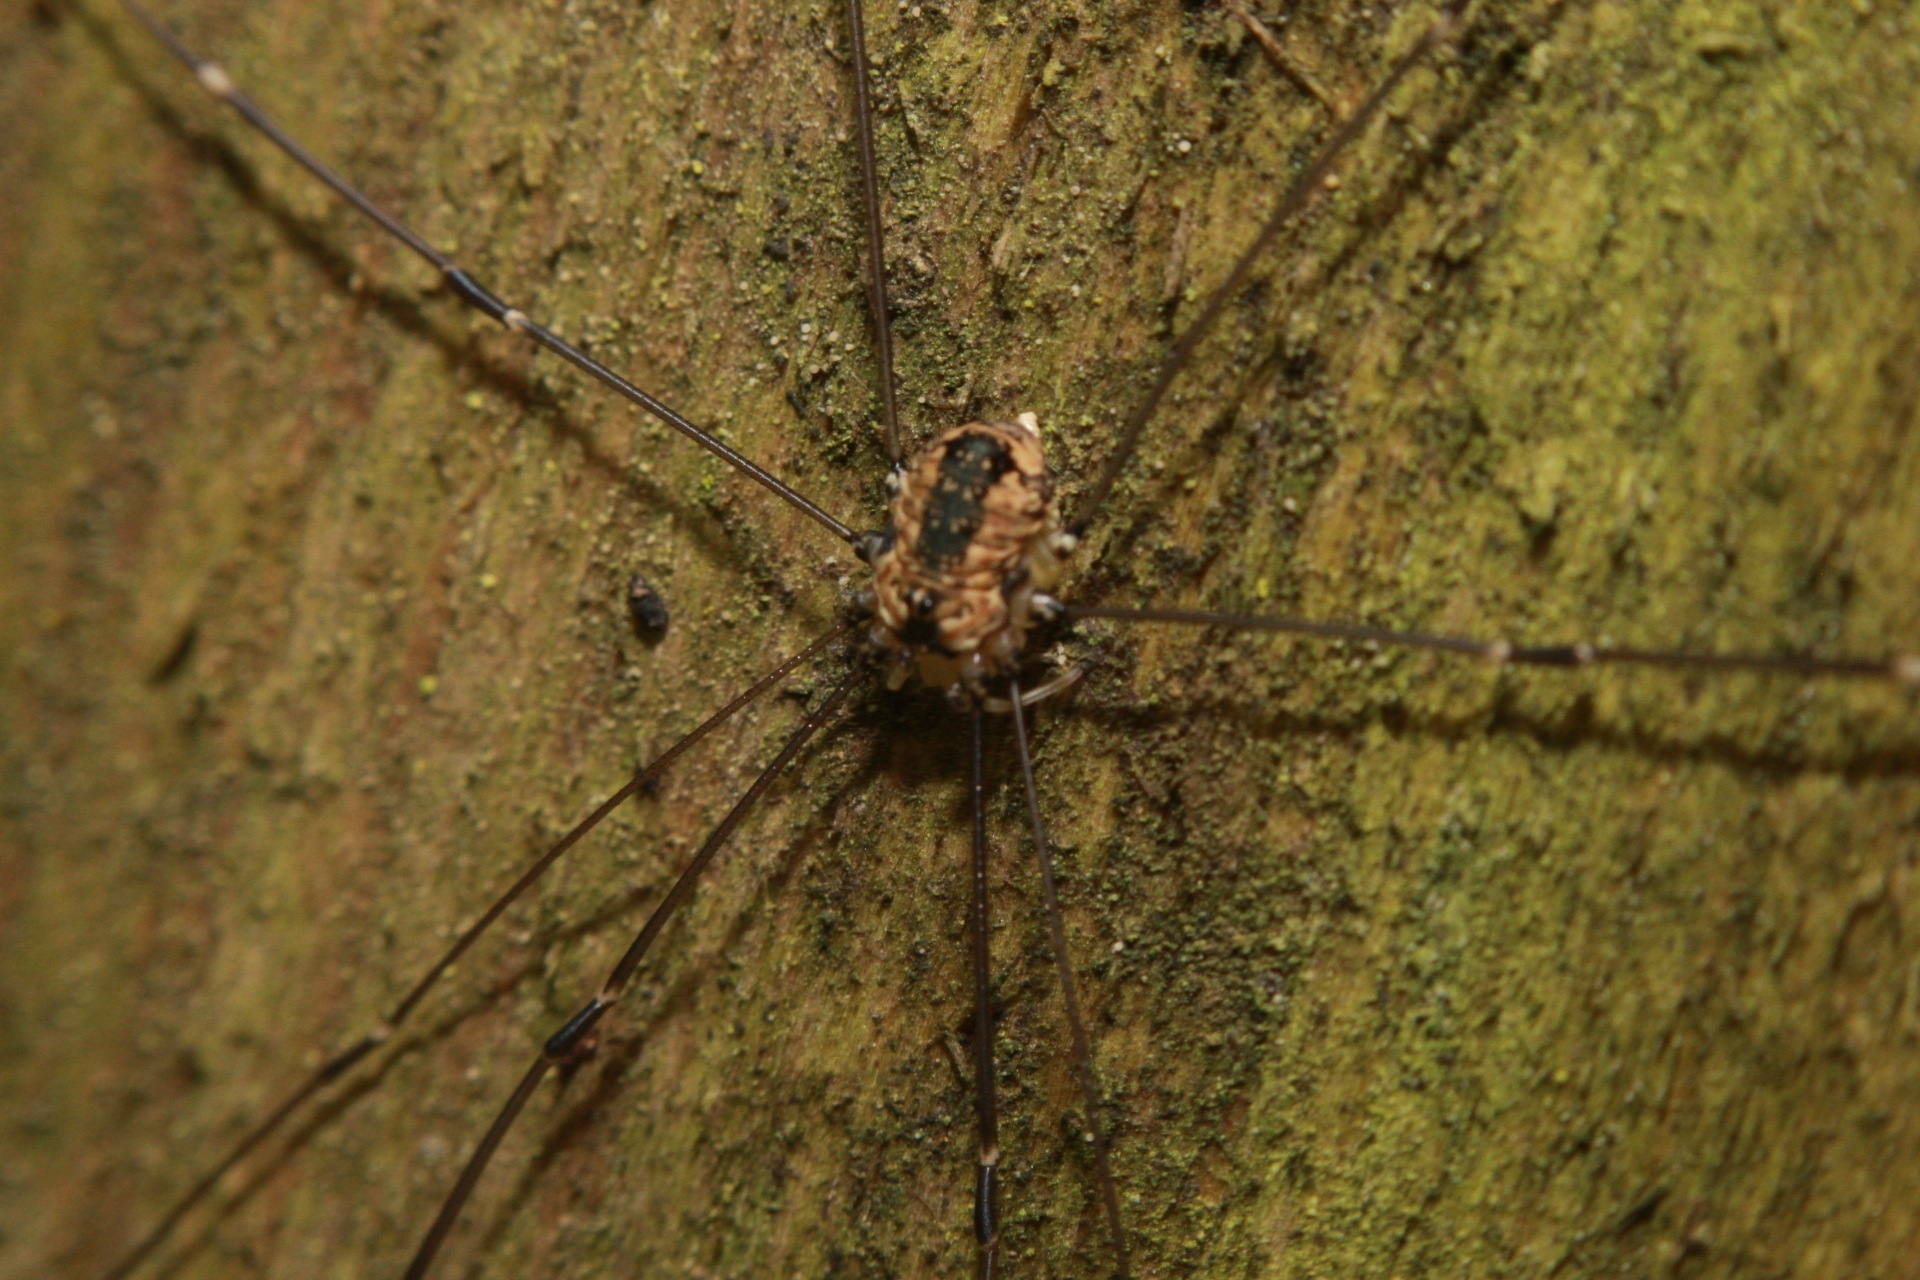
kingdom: Animalia
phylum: Arthropoda
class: Arachnida
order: Opiliones
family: Sclerosomatidae
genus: Leiobunum
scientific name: Leiobunum rotundum
